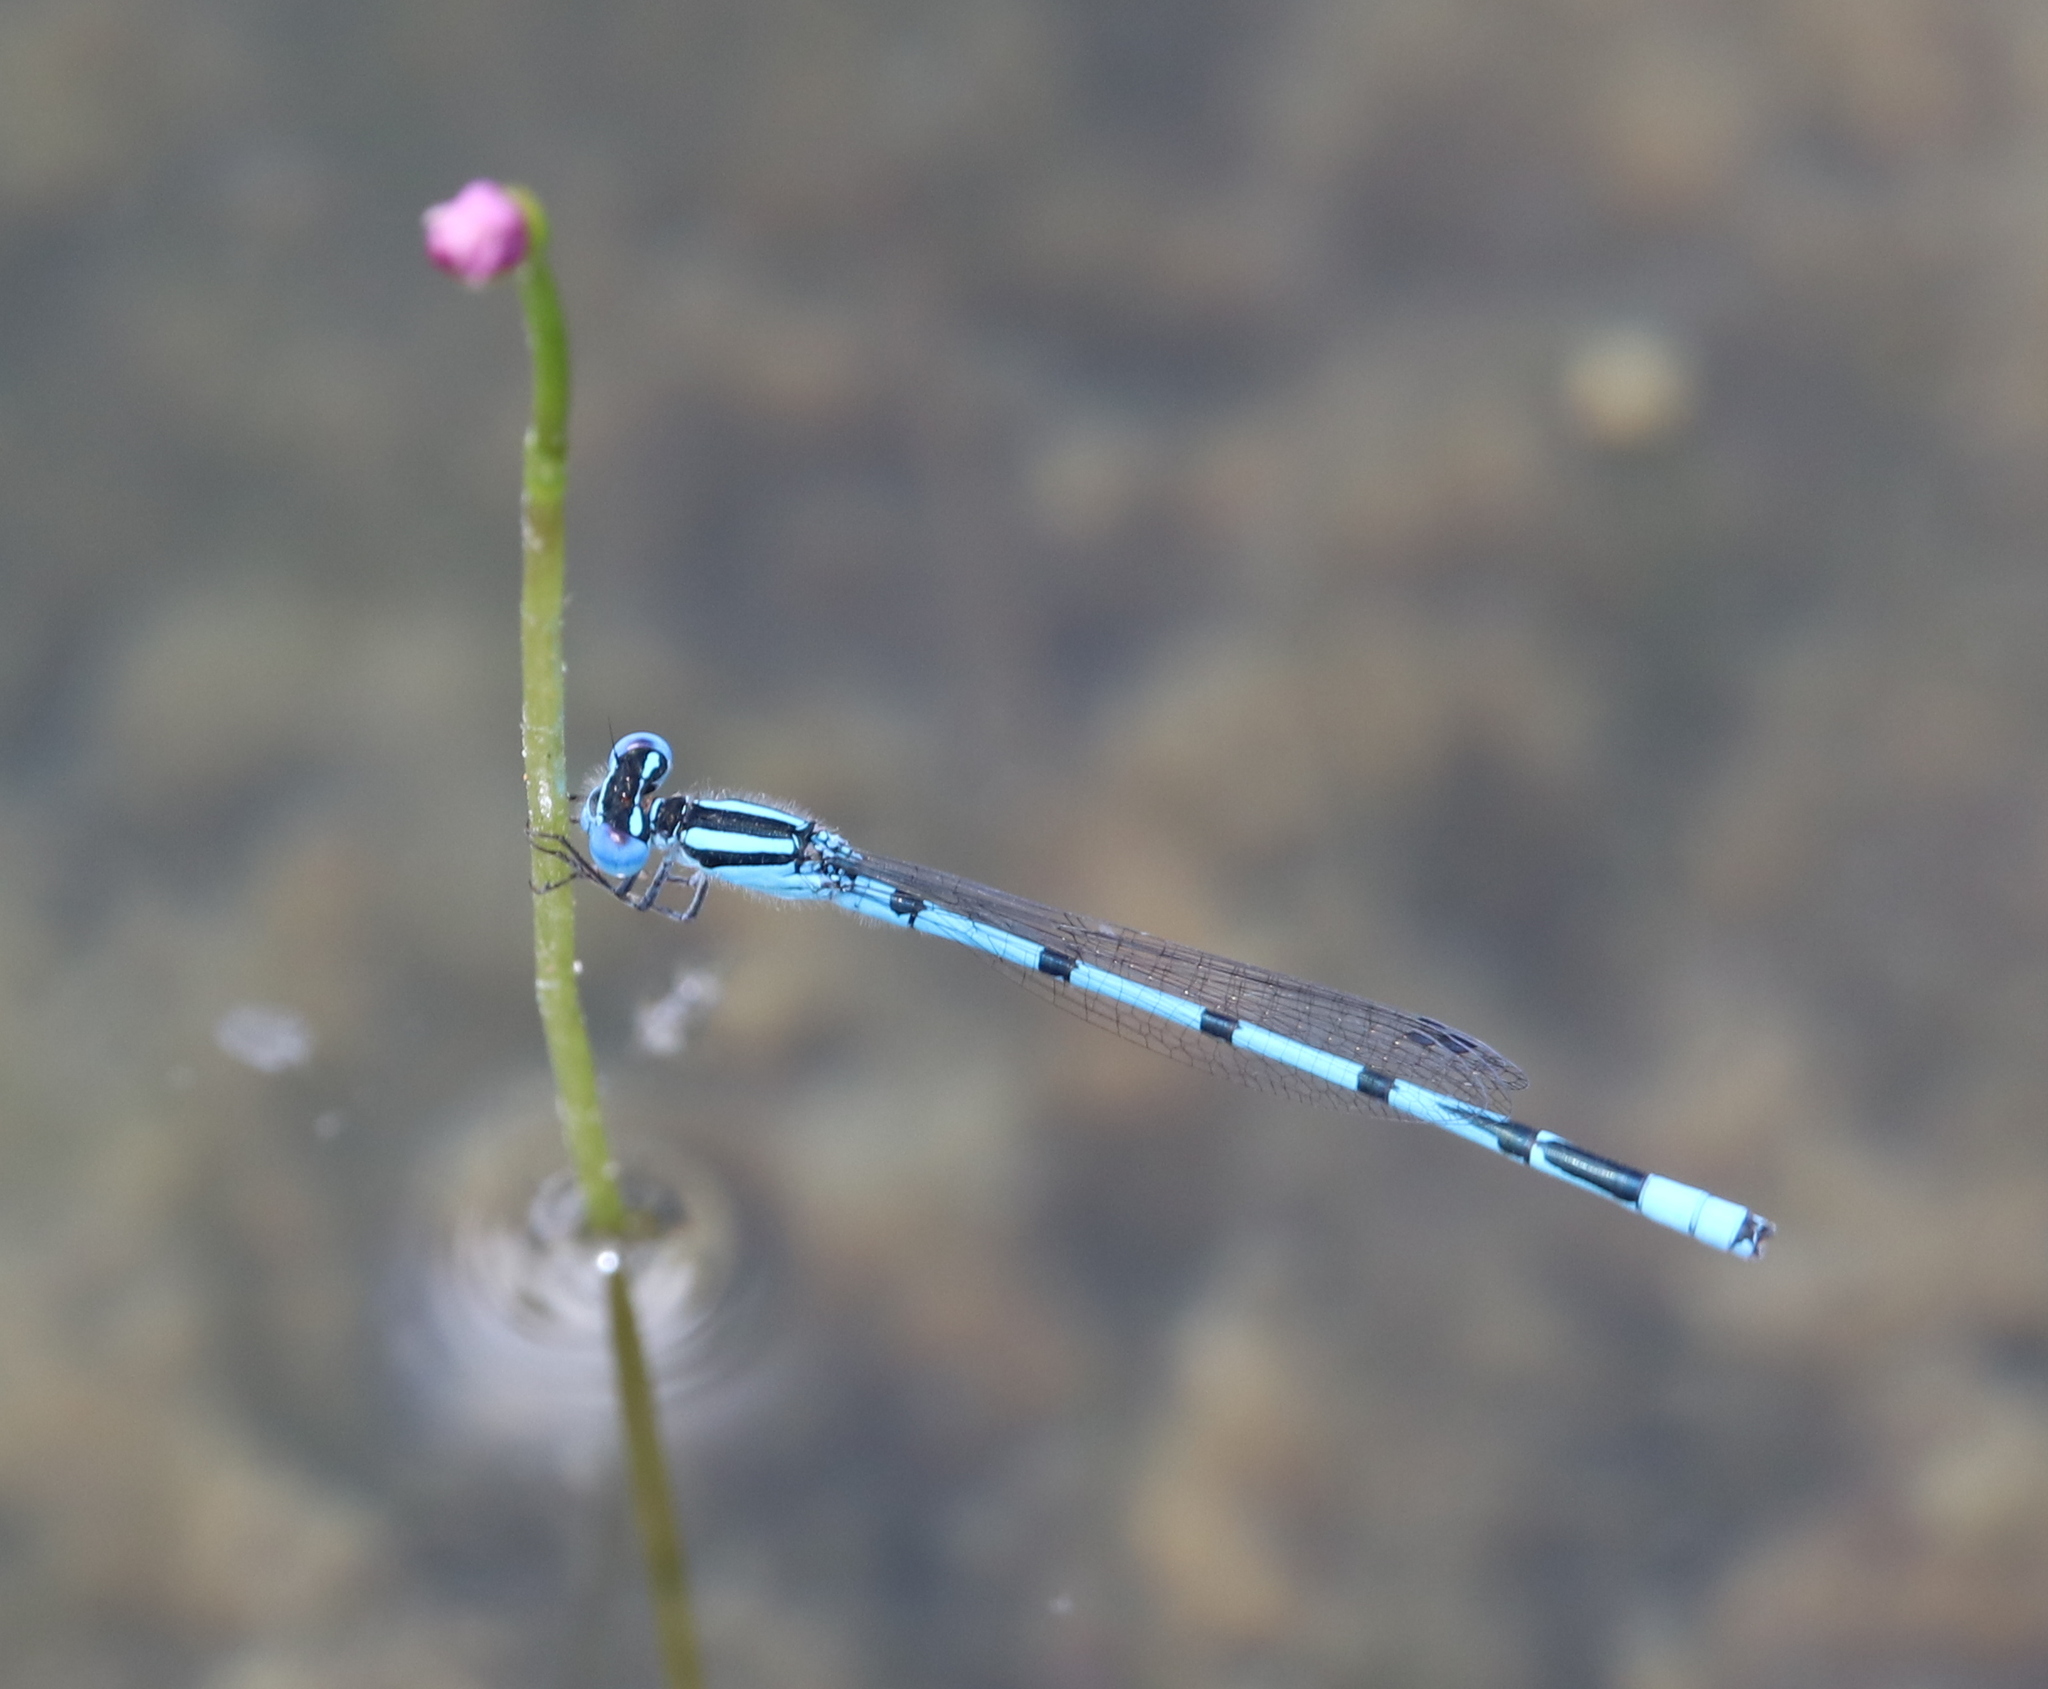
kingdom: Animalia
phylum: Arthropoda
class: Insecta
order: Odonata
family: Coenagrionidae
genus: Enallagma
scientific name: Enallagma doubledayi
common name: Atlantic bluet
